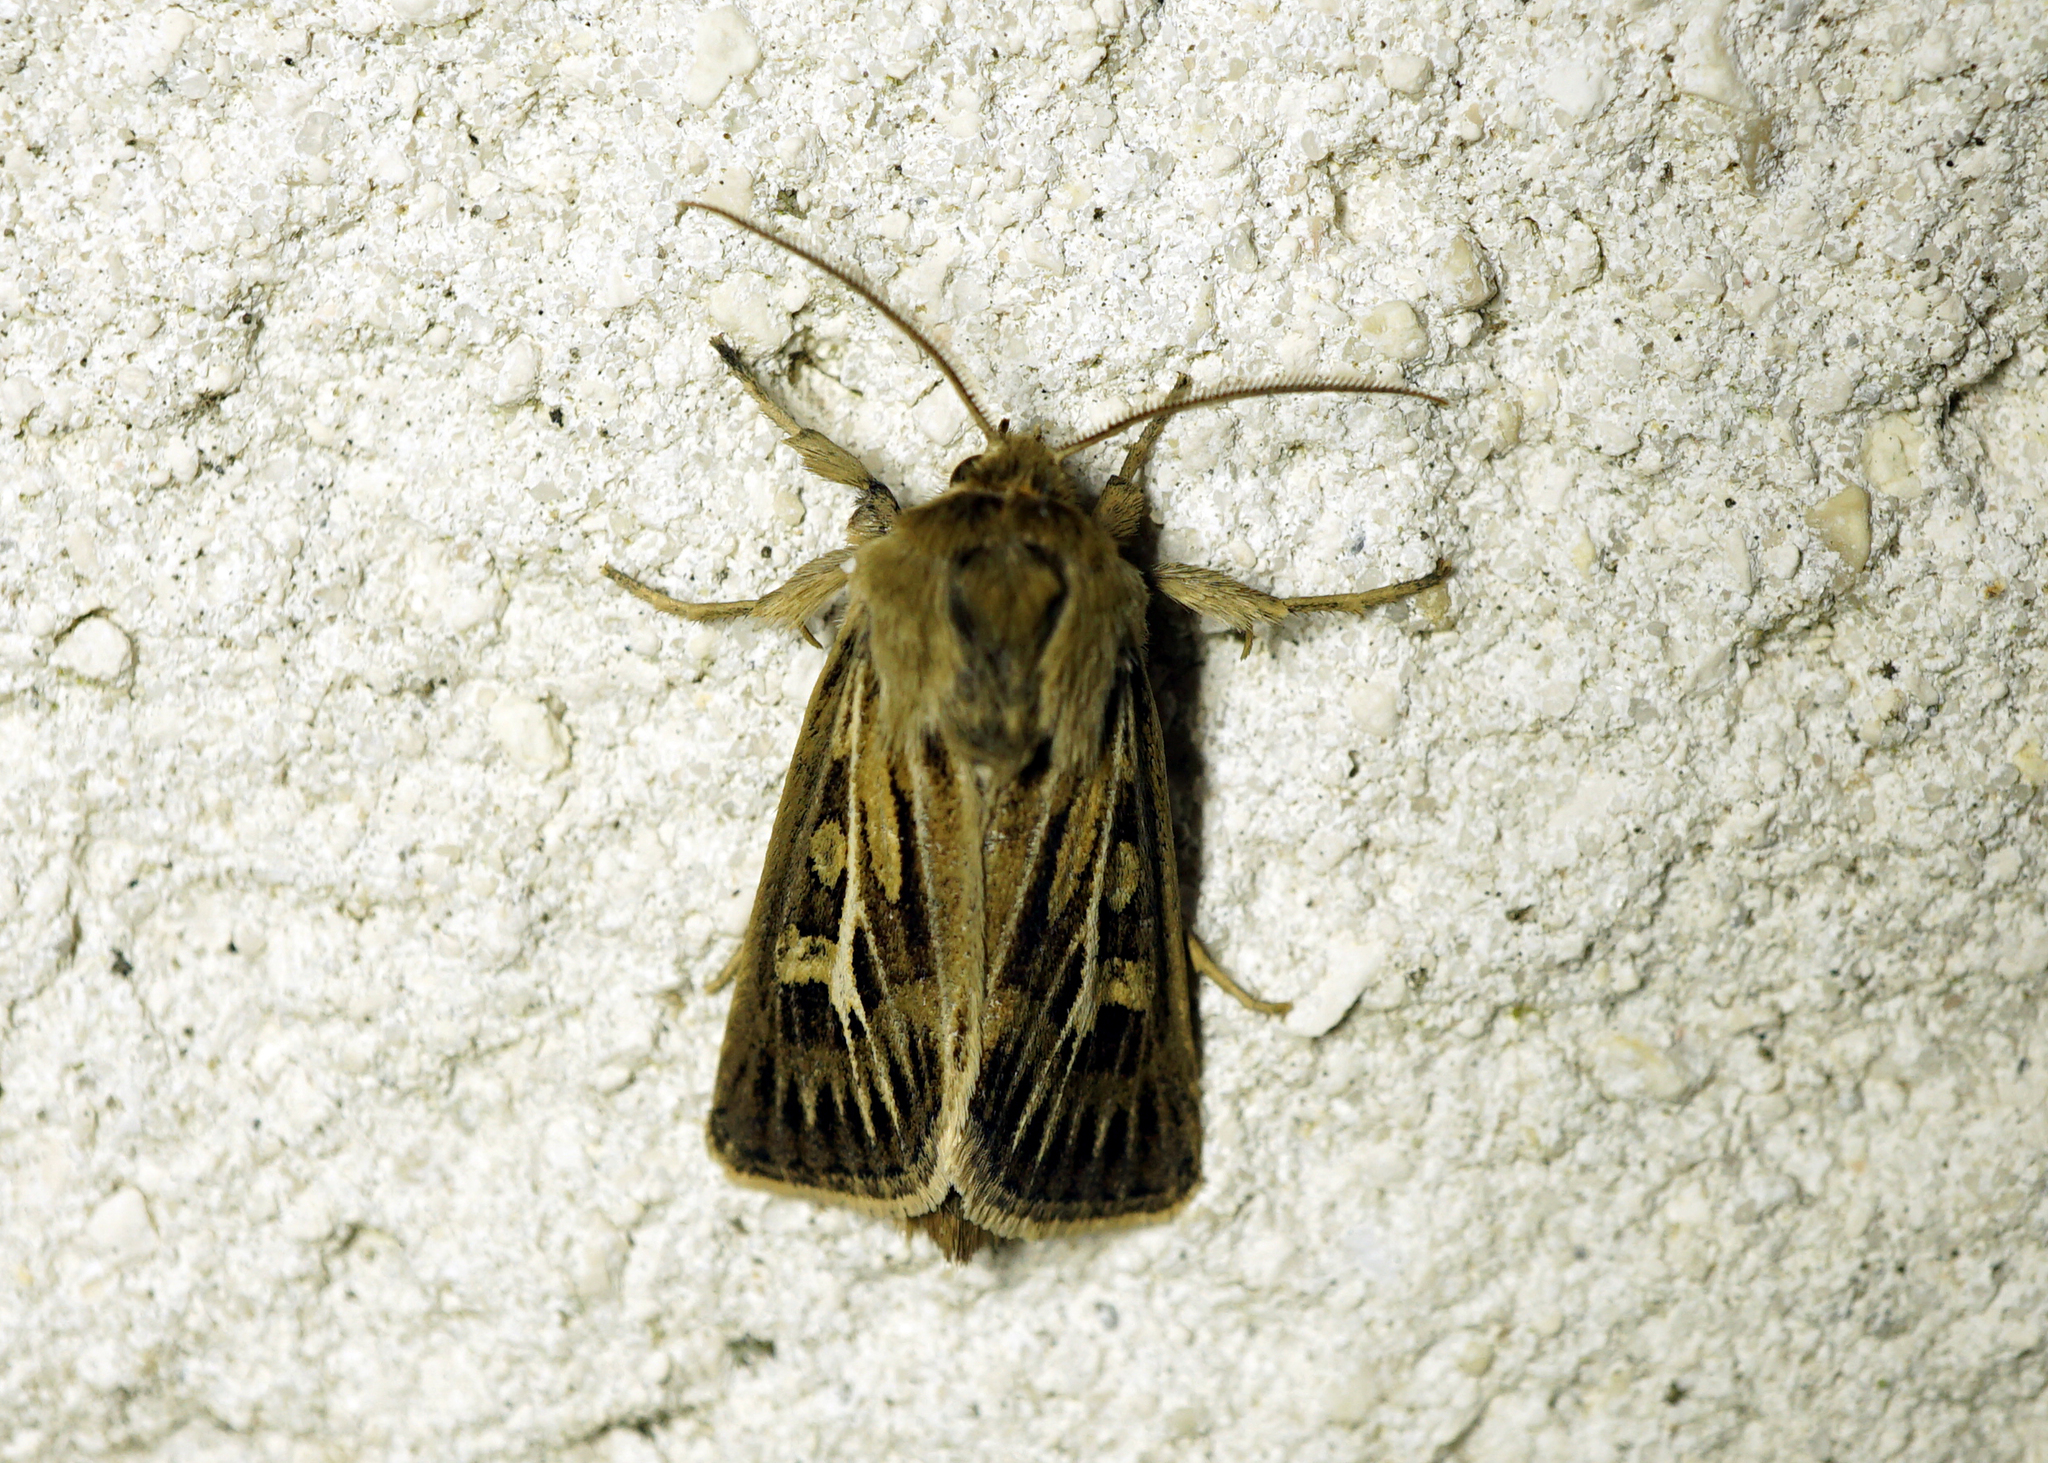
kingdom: Animalia
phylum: Arthropoda
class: Insecta
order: Lepidoptera
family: Noctuidae
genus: Cerapteryx
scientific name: Cerapteryx graminis
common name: Antler moth
